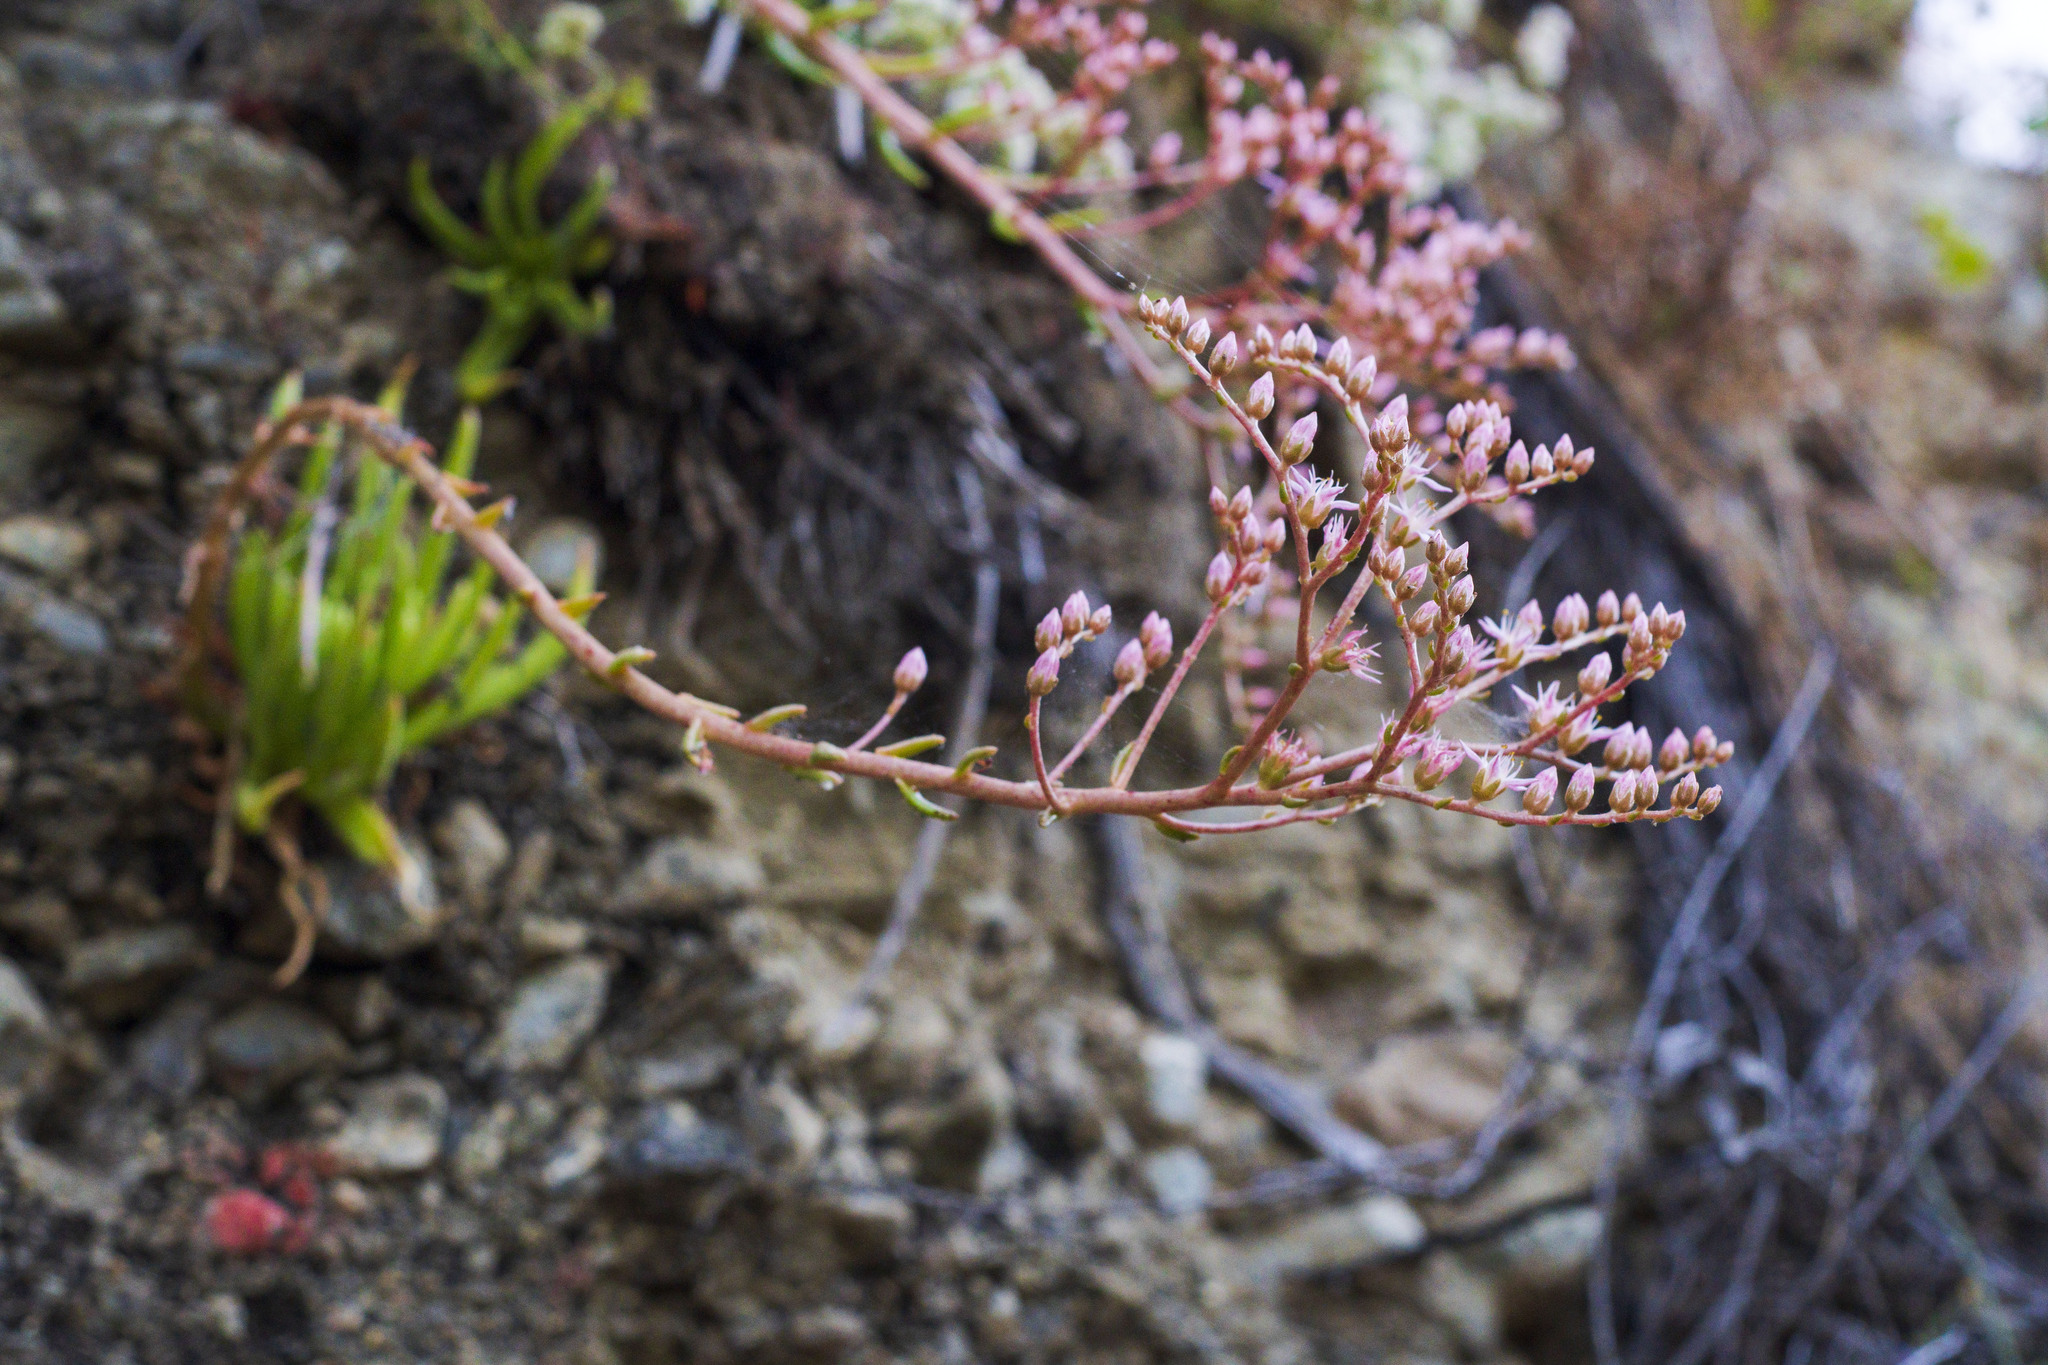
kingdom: Plantae
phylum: Tracheophyta
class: Magnoliopsida
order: Saxifragales
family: Crassulaceae
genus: Dudleya
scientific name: Dudleya viscida
